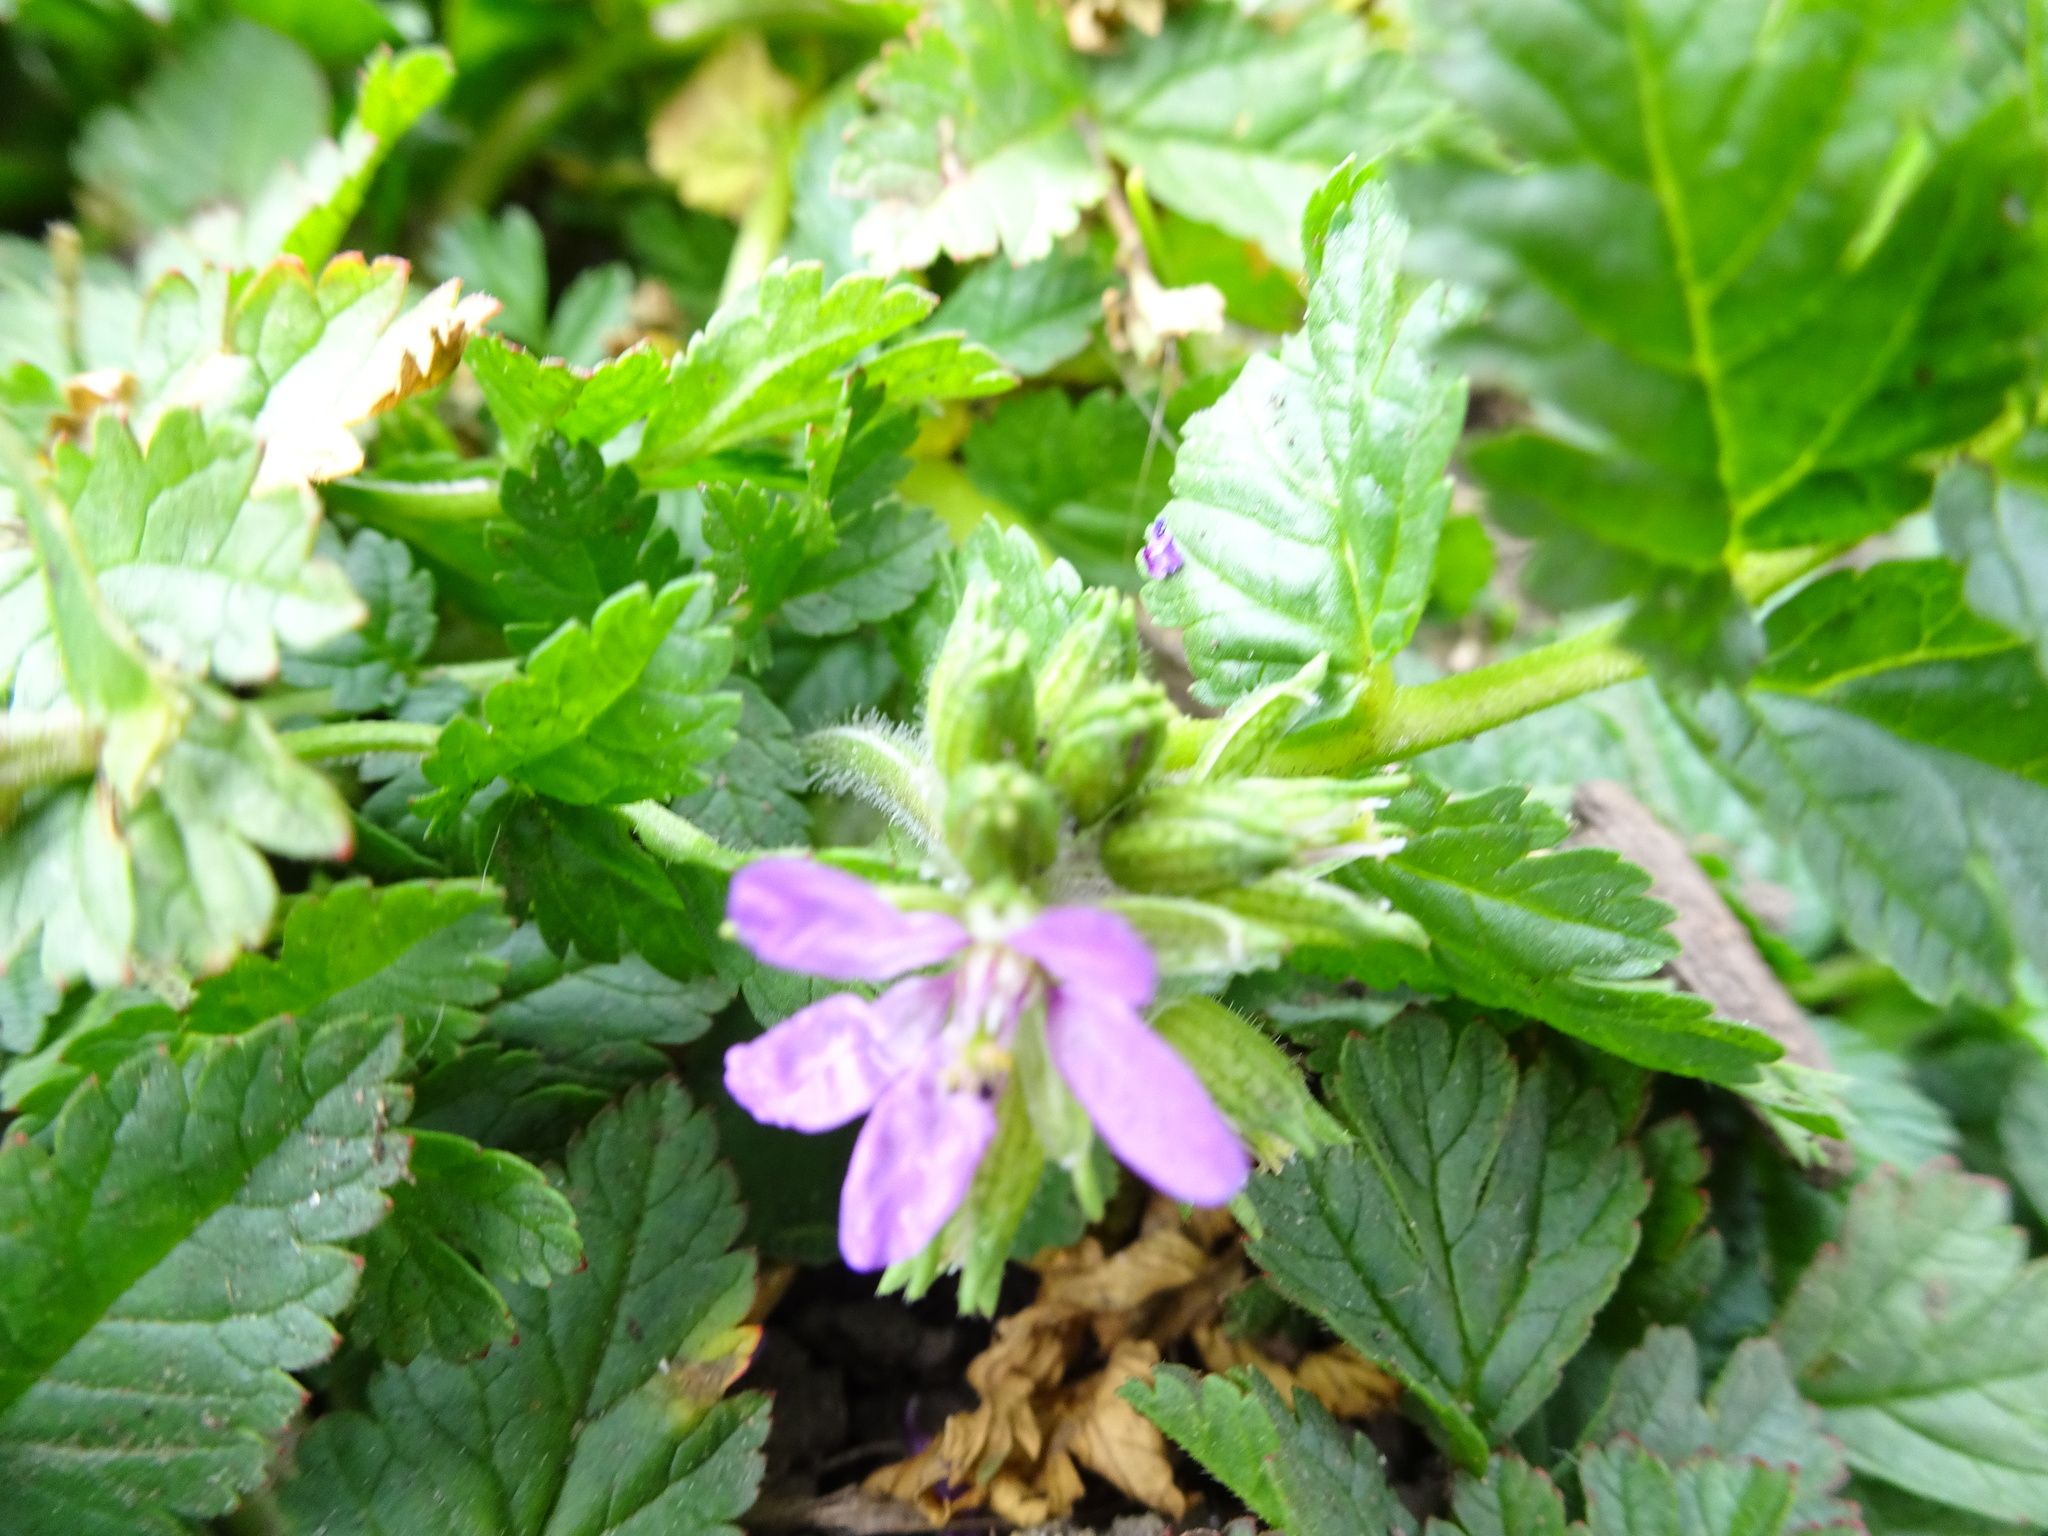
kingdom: Plantae
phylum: Tracheophyta
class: Magnoliopsida
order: Geraniales
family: Geraniaceae
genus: Erodium
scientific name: Erodium moschatum
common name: Musk stork's-bill
